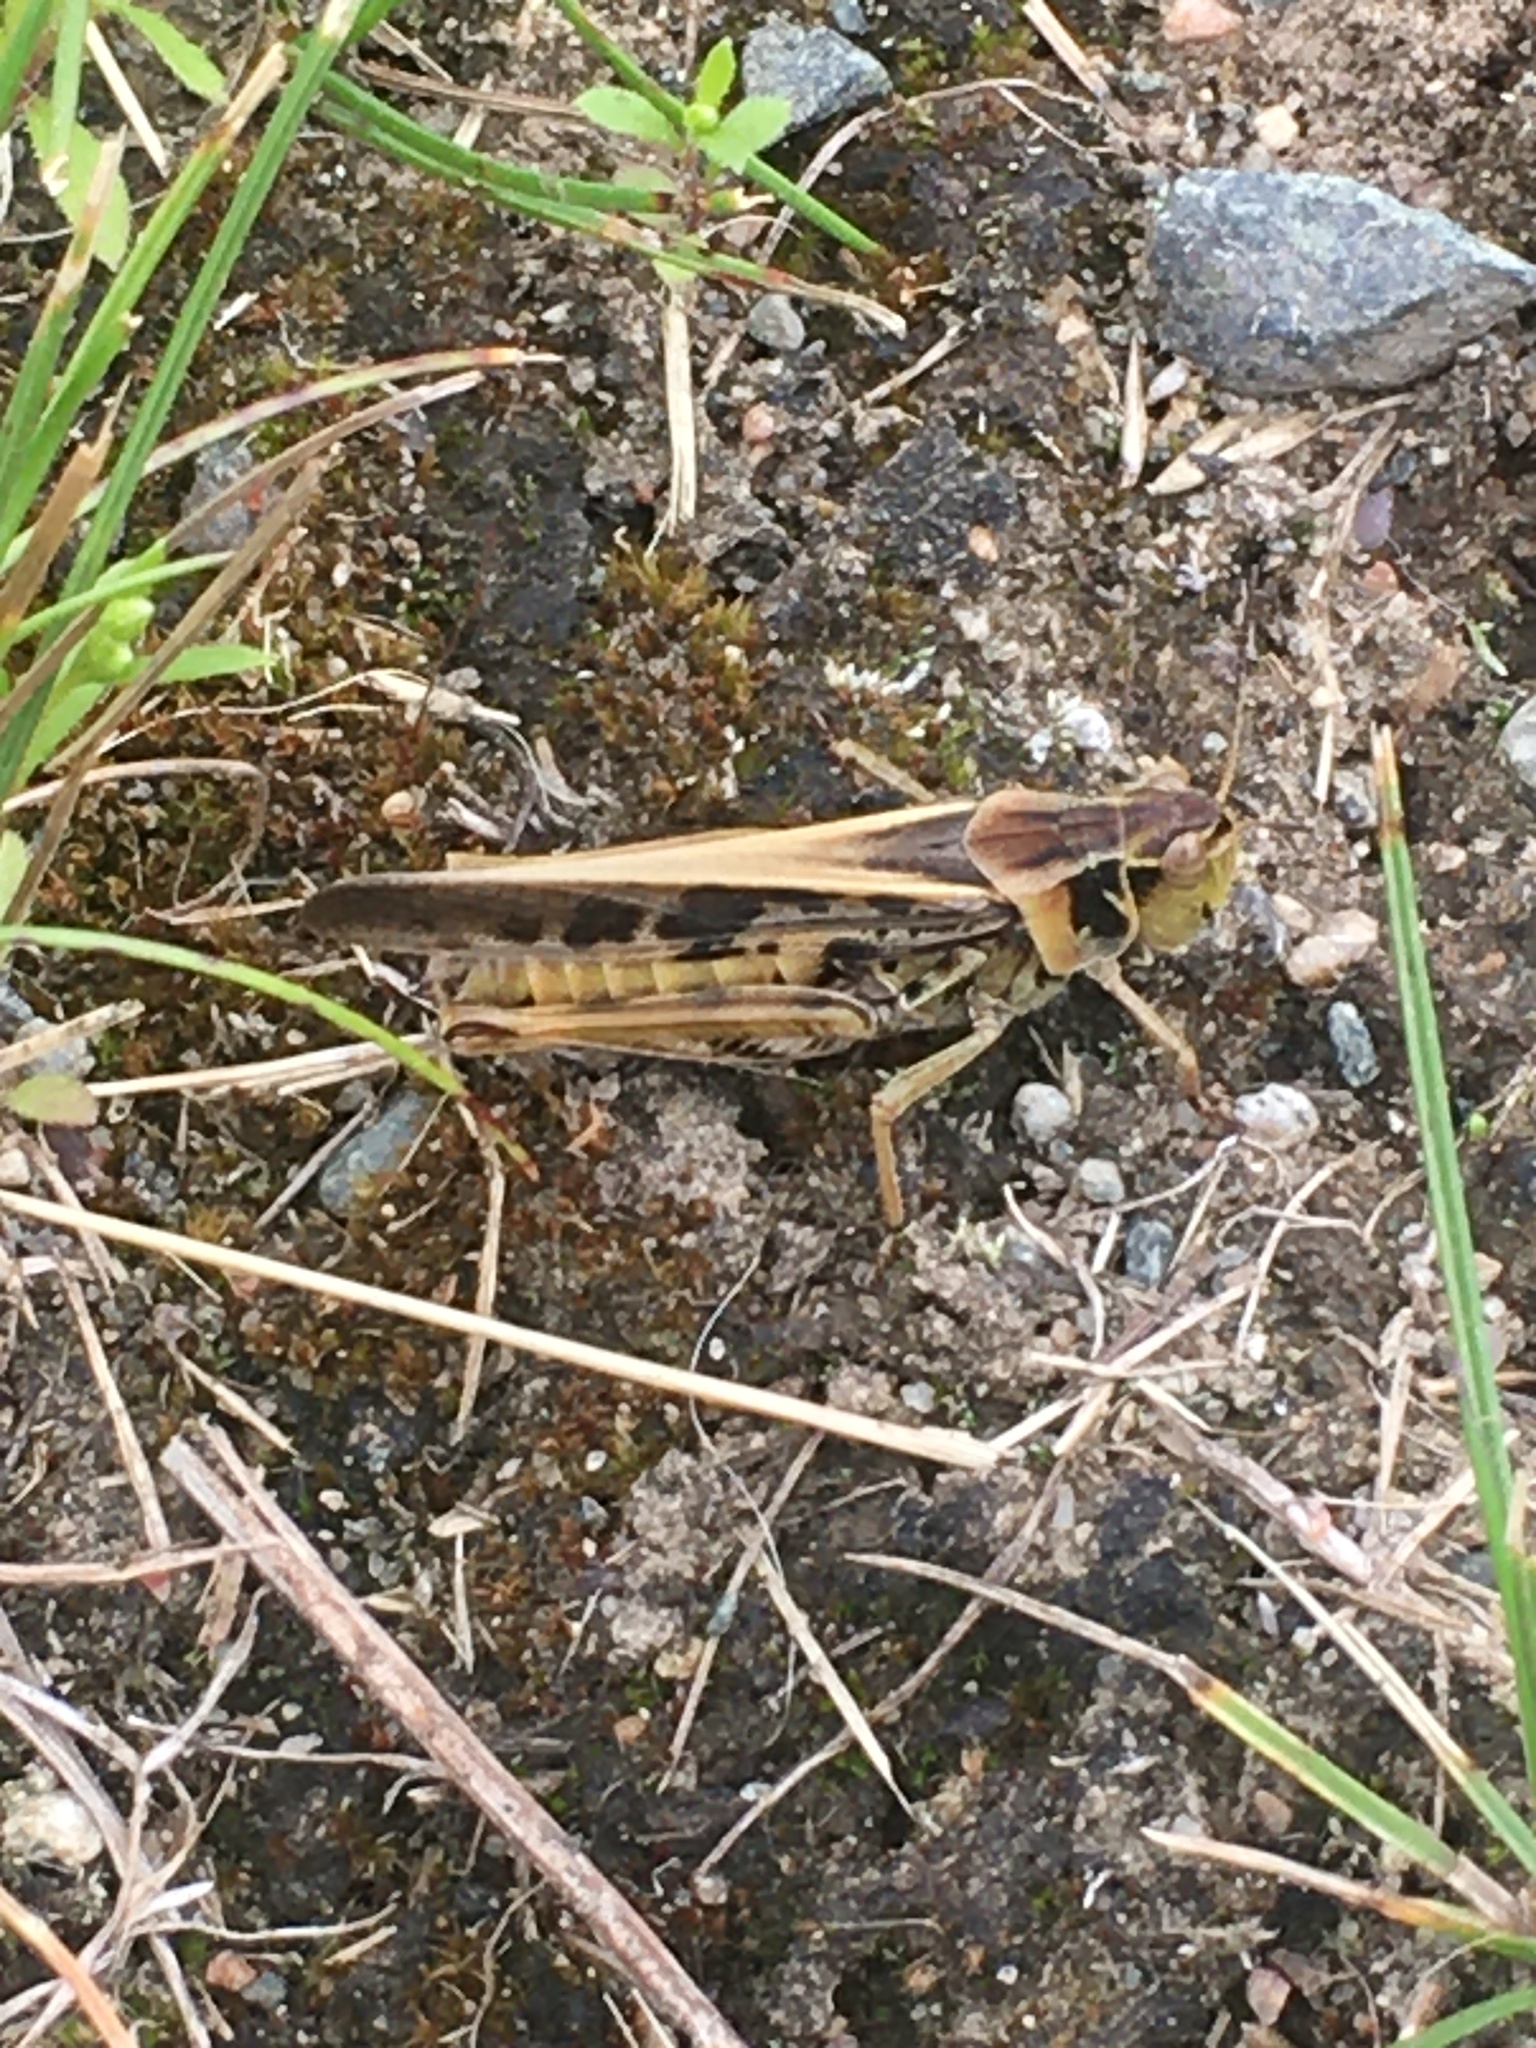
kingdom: Animalia
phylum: Arthropoda
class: Insecta
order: Orthoptera
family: Acrididae
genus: Camnula
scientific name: Camnula pellucida
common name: Clear-winged grasshopper
